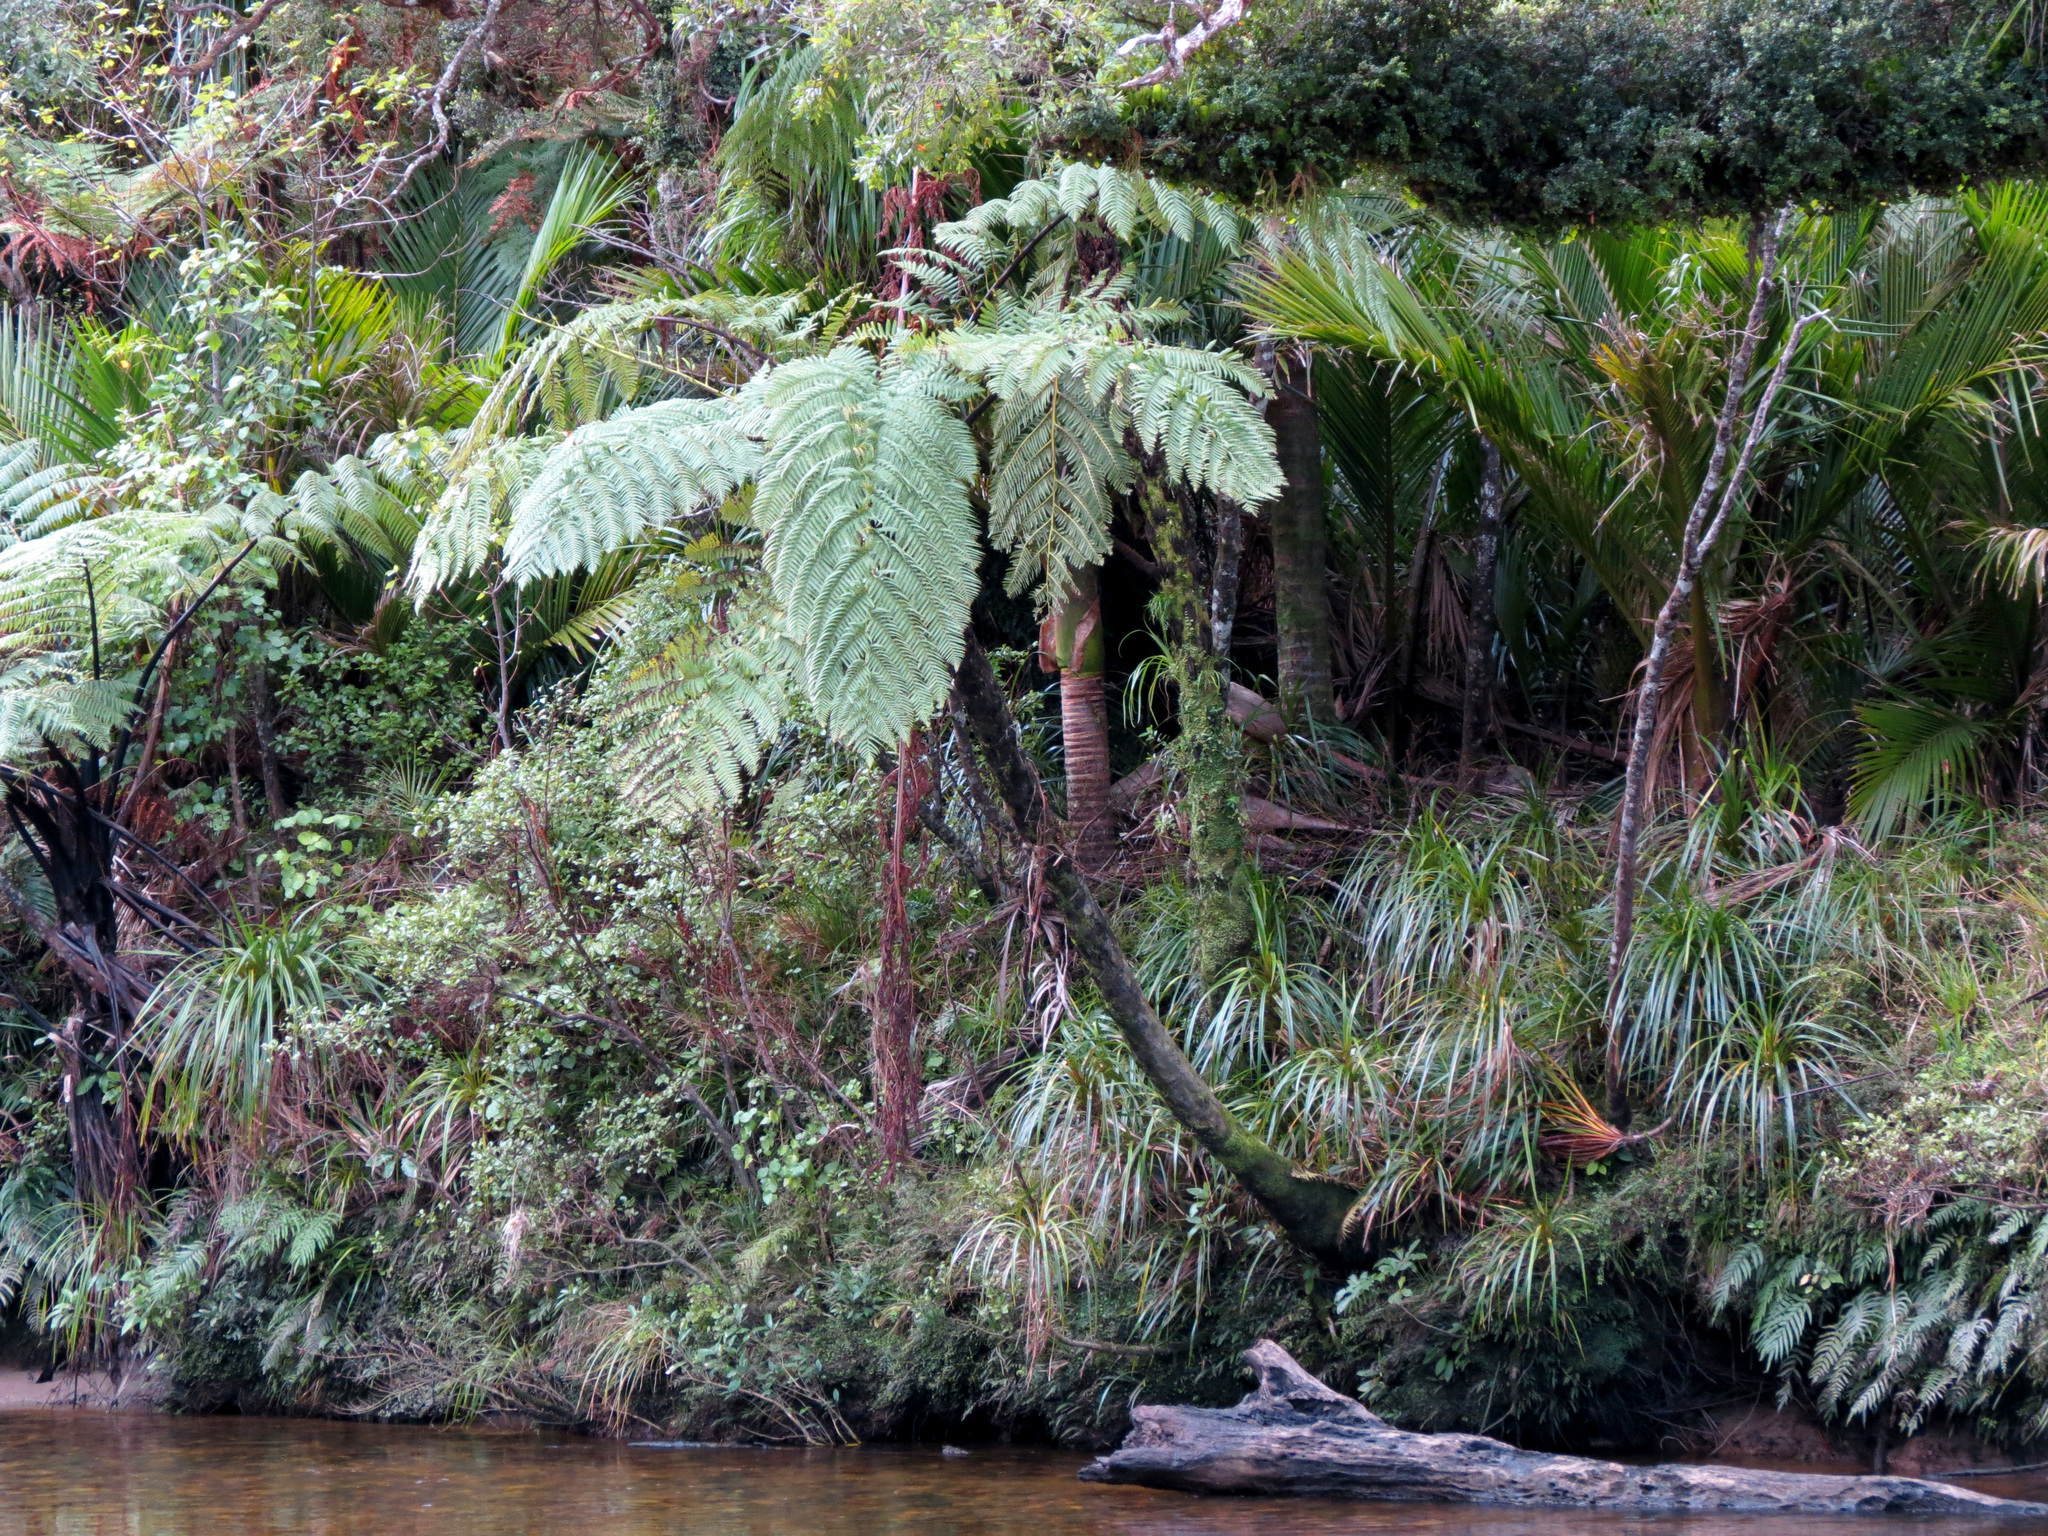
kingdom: Plantae
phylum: Tracheophyta
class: Polypodiopsida
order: Cyatheales
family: Cyatheaceae
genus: Sphaeropteris
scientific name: Sphaeropteris medullaris
